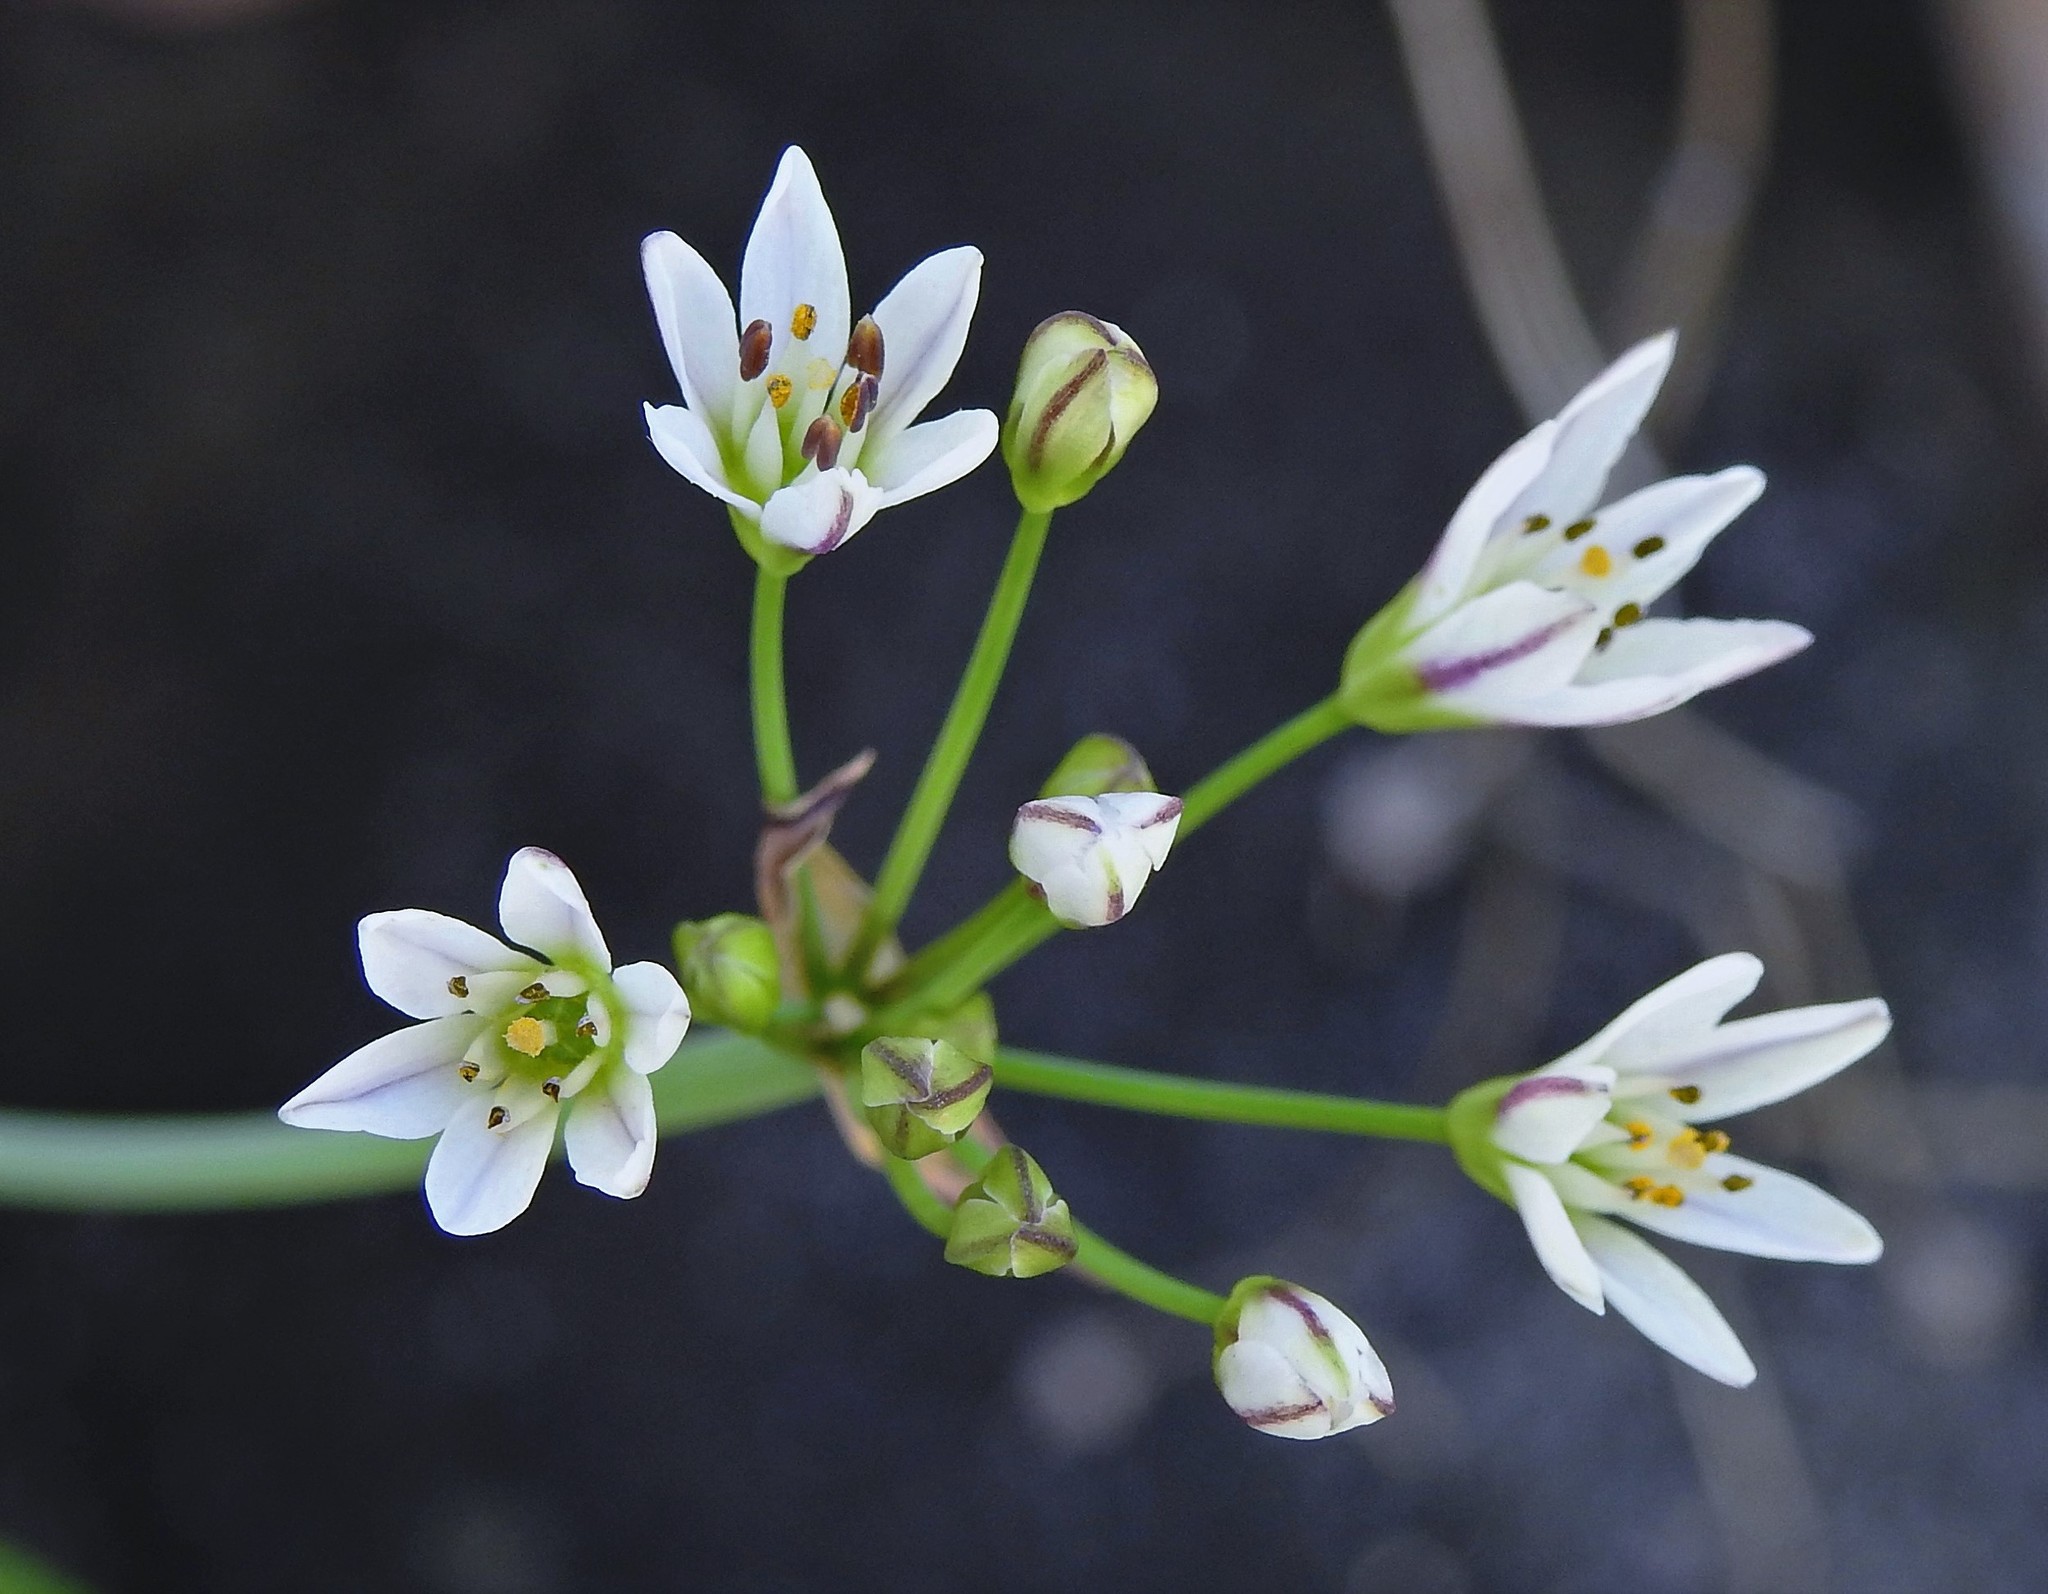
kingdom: Plantae
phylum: Tracheophyta
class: Liliopsida
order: Asparagales
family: Amaryllidaceae
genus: Nothoscordum
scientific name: Nothoscordum gracile
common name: Slender false garlic
